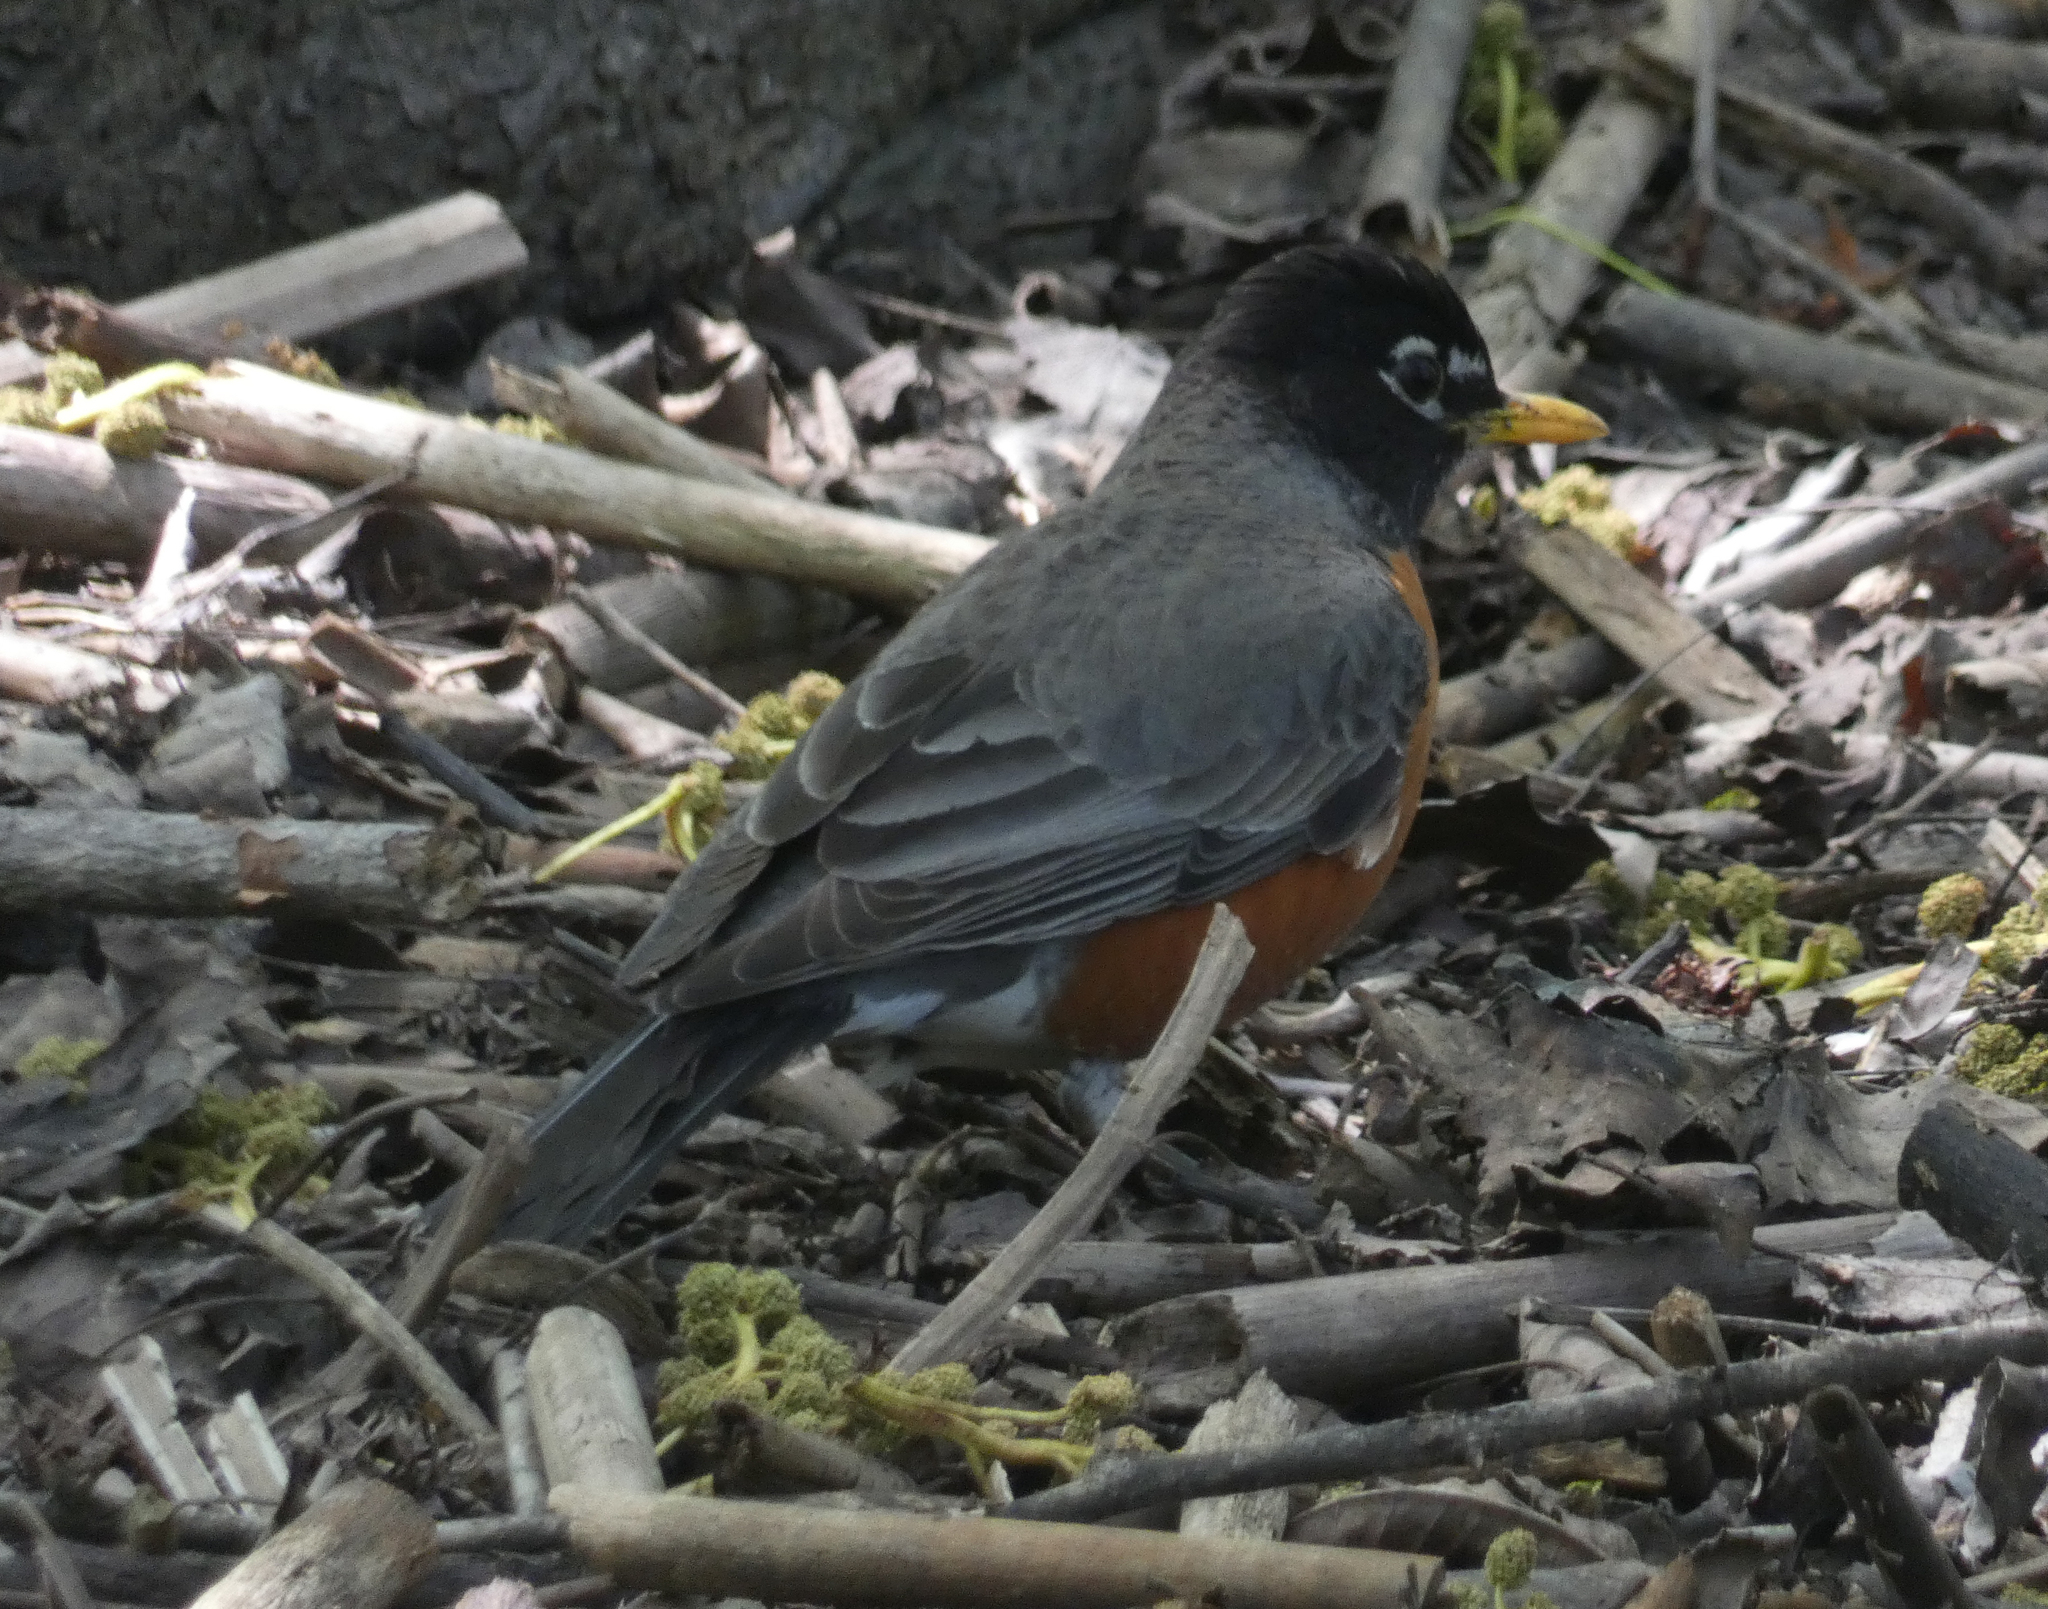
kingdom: Animalia
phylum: Chordata
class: Aves
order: Passeriformes
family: Turdidae
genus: Turdus
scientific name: Turdus migratorius
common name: American robin
